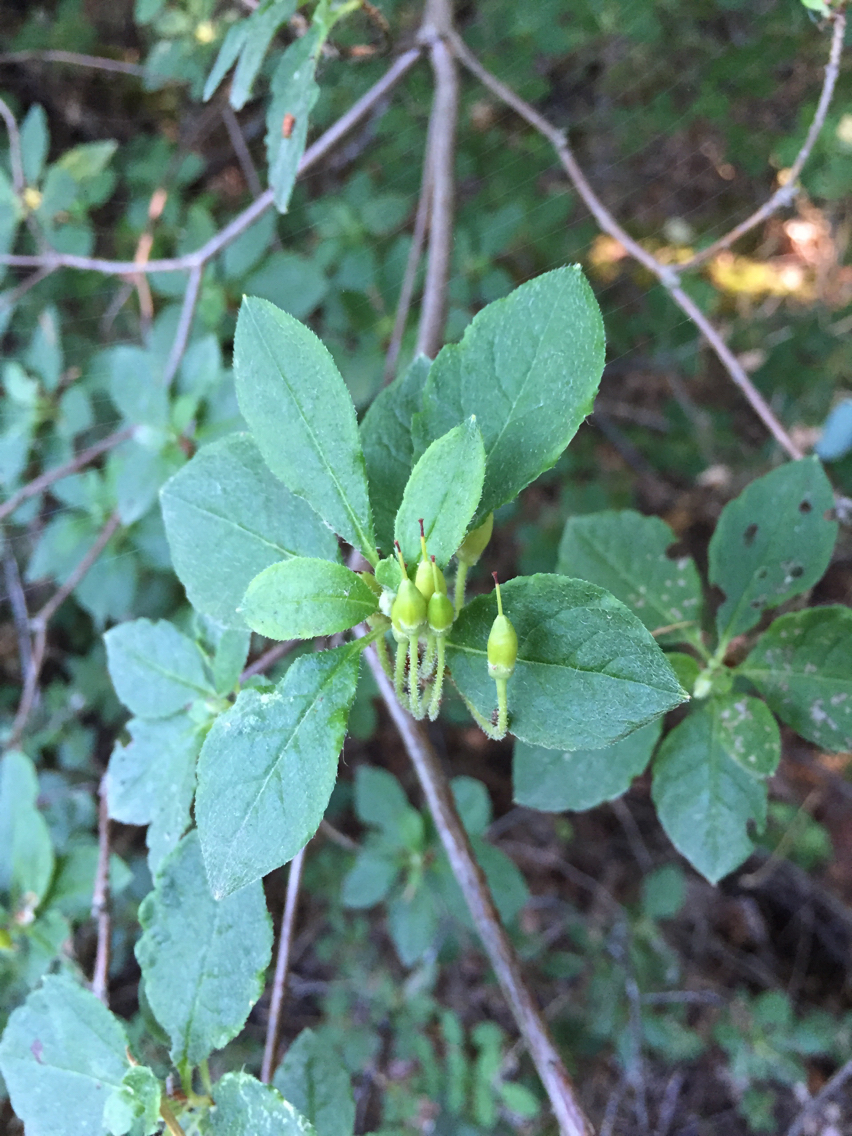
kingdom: Plantae
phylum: Tracheophyta
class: Magnoliopsida
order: Ericales
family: Ericaceae
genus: Rhododendron
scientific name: Rhododendron menziesii
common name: Pacific menziesia
